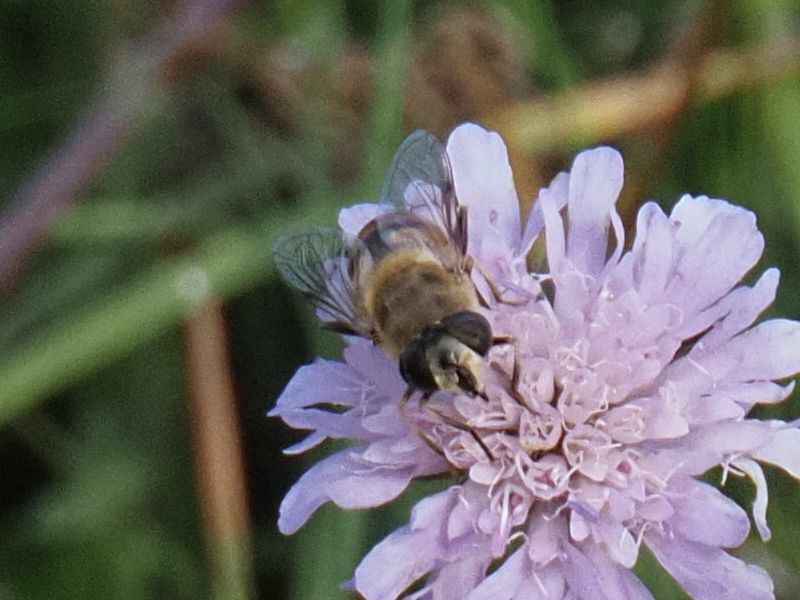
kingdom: Animalia
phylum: Arthropoda
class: Insecta
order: Diptera
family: Syrphidae
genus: Eristalis
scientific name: Eristalis tenax
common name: Drone fly
